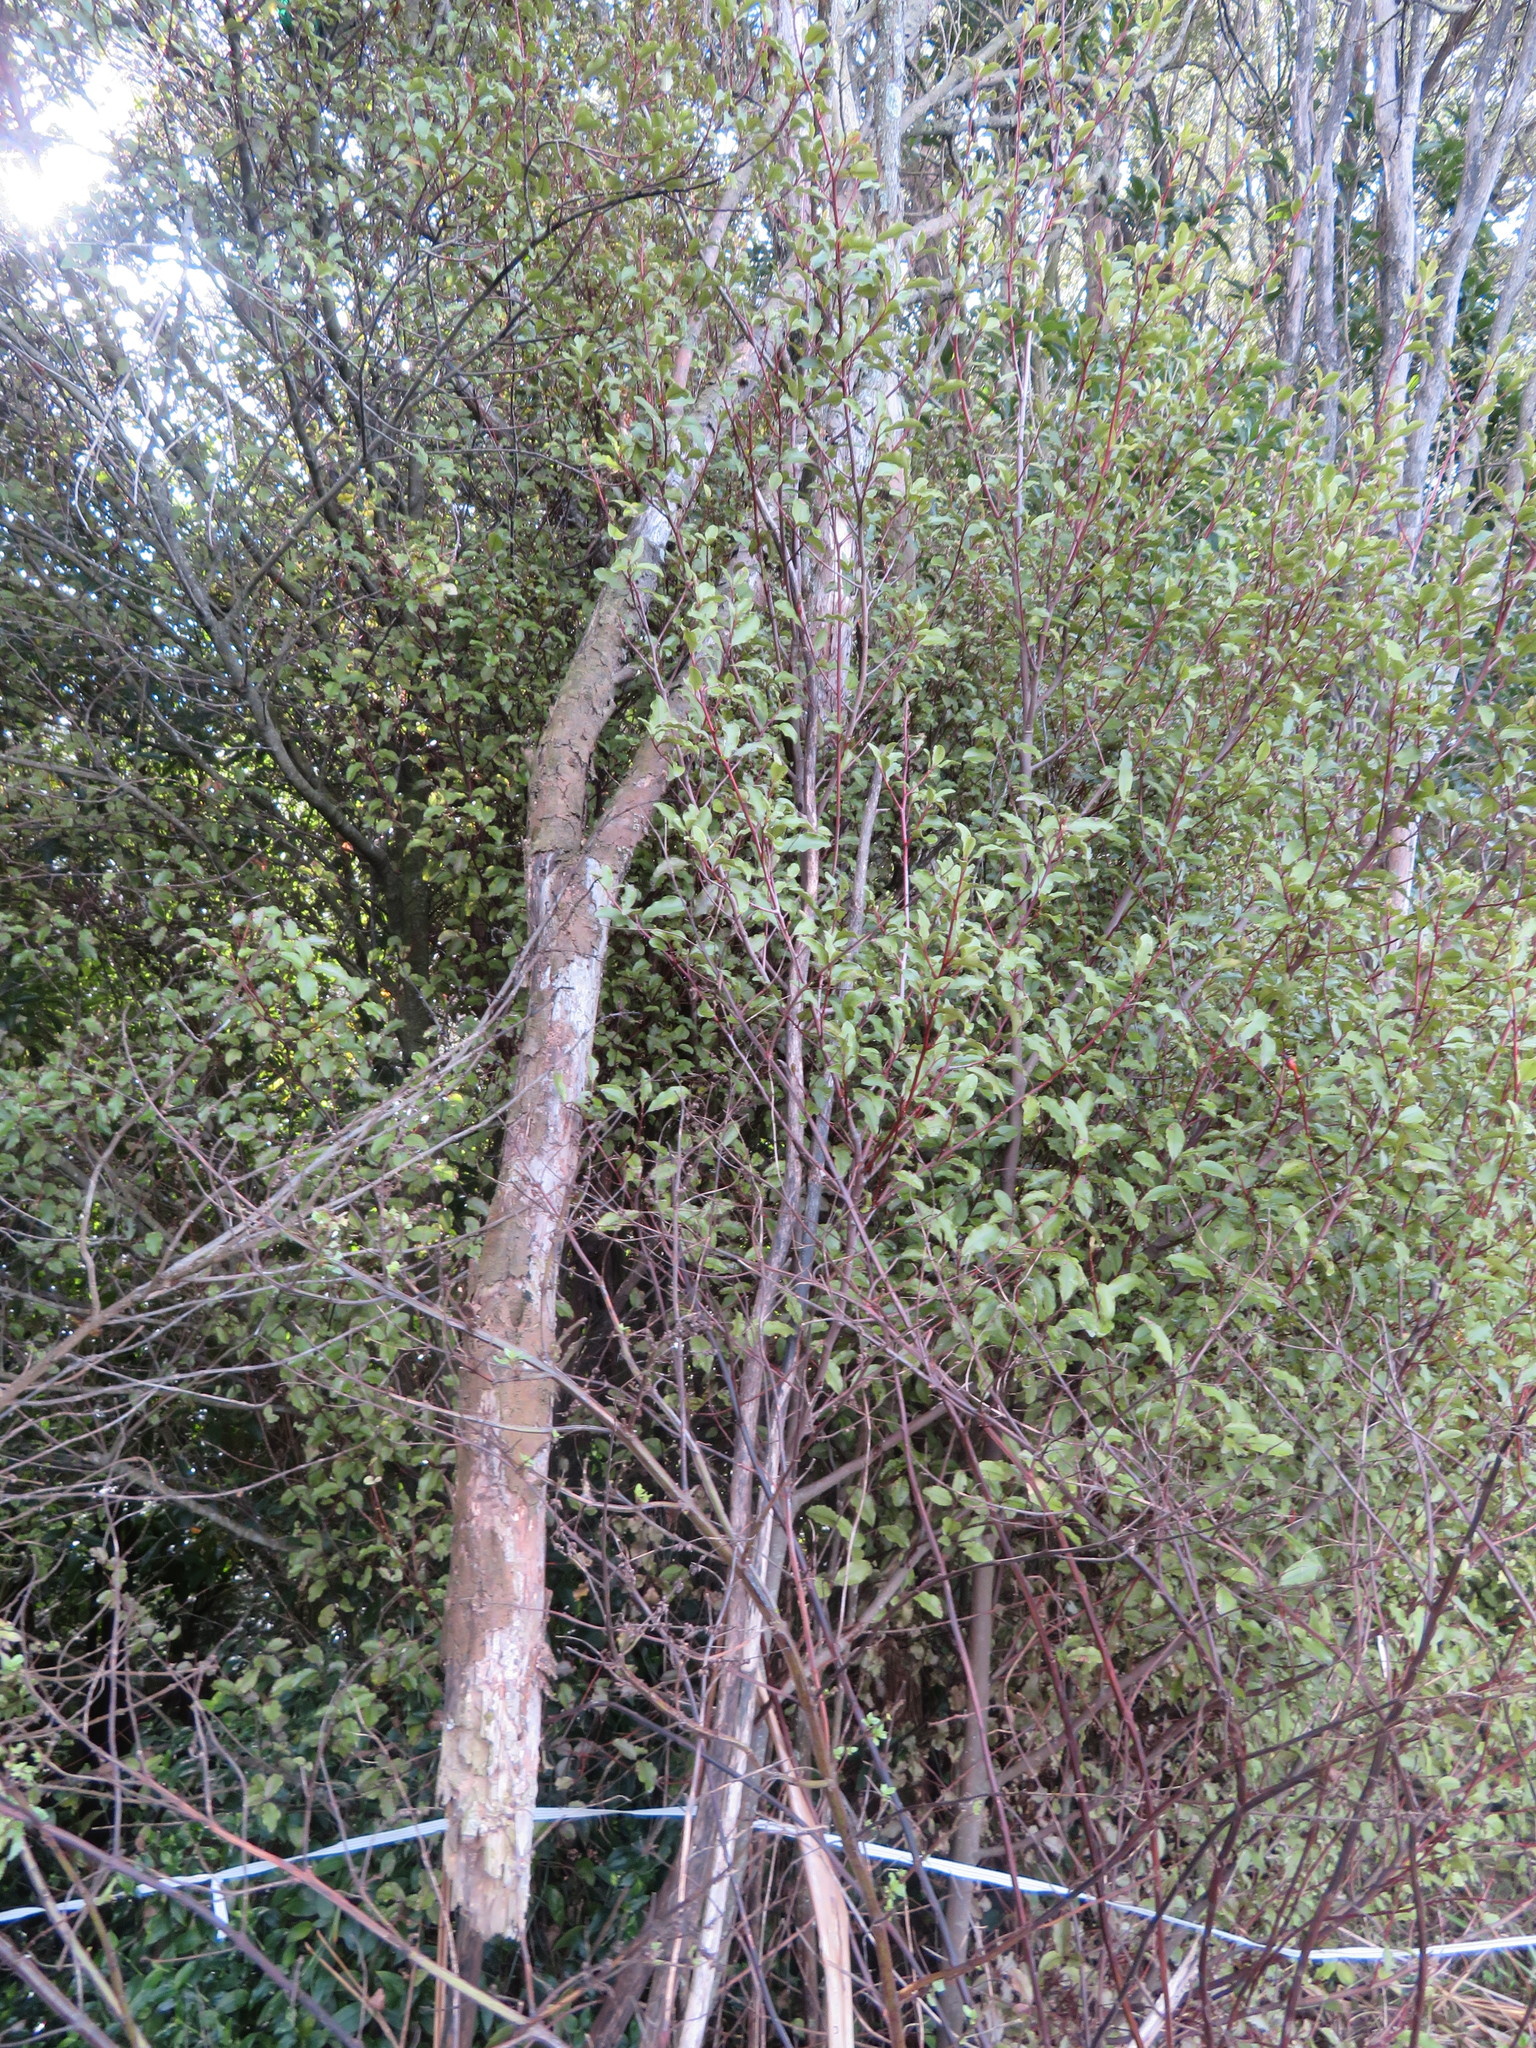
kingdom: Plantae
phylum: Tracheophyta
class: Magnoliopsida
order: Ericales
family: Primulaceae
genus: Myrsine
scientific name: Myrsine australis
